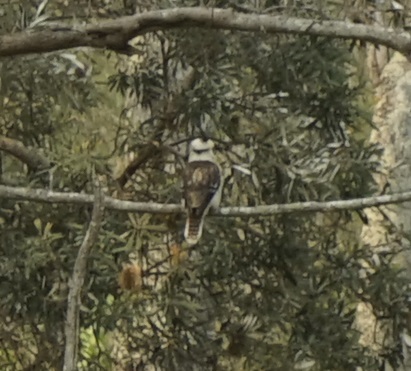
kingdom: Animalia
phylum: Chordata
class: Aves
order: Coraciiformes
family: Alcedinidae
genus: Dacelo
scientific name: Dacelo novaeguineae
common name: Laughing kookaburra
